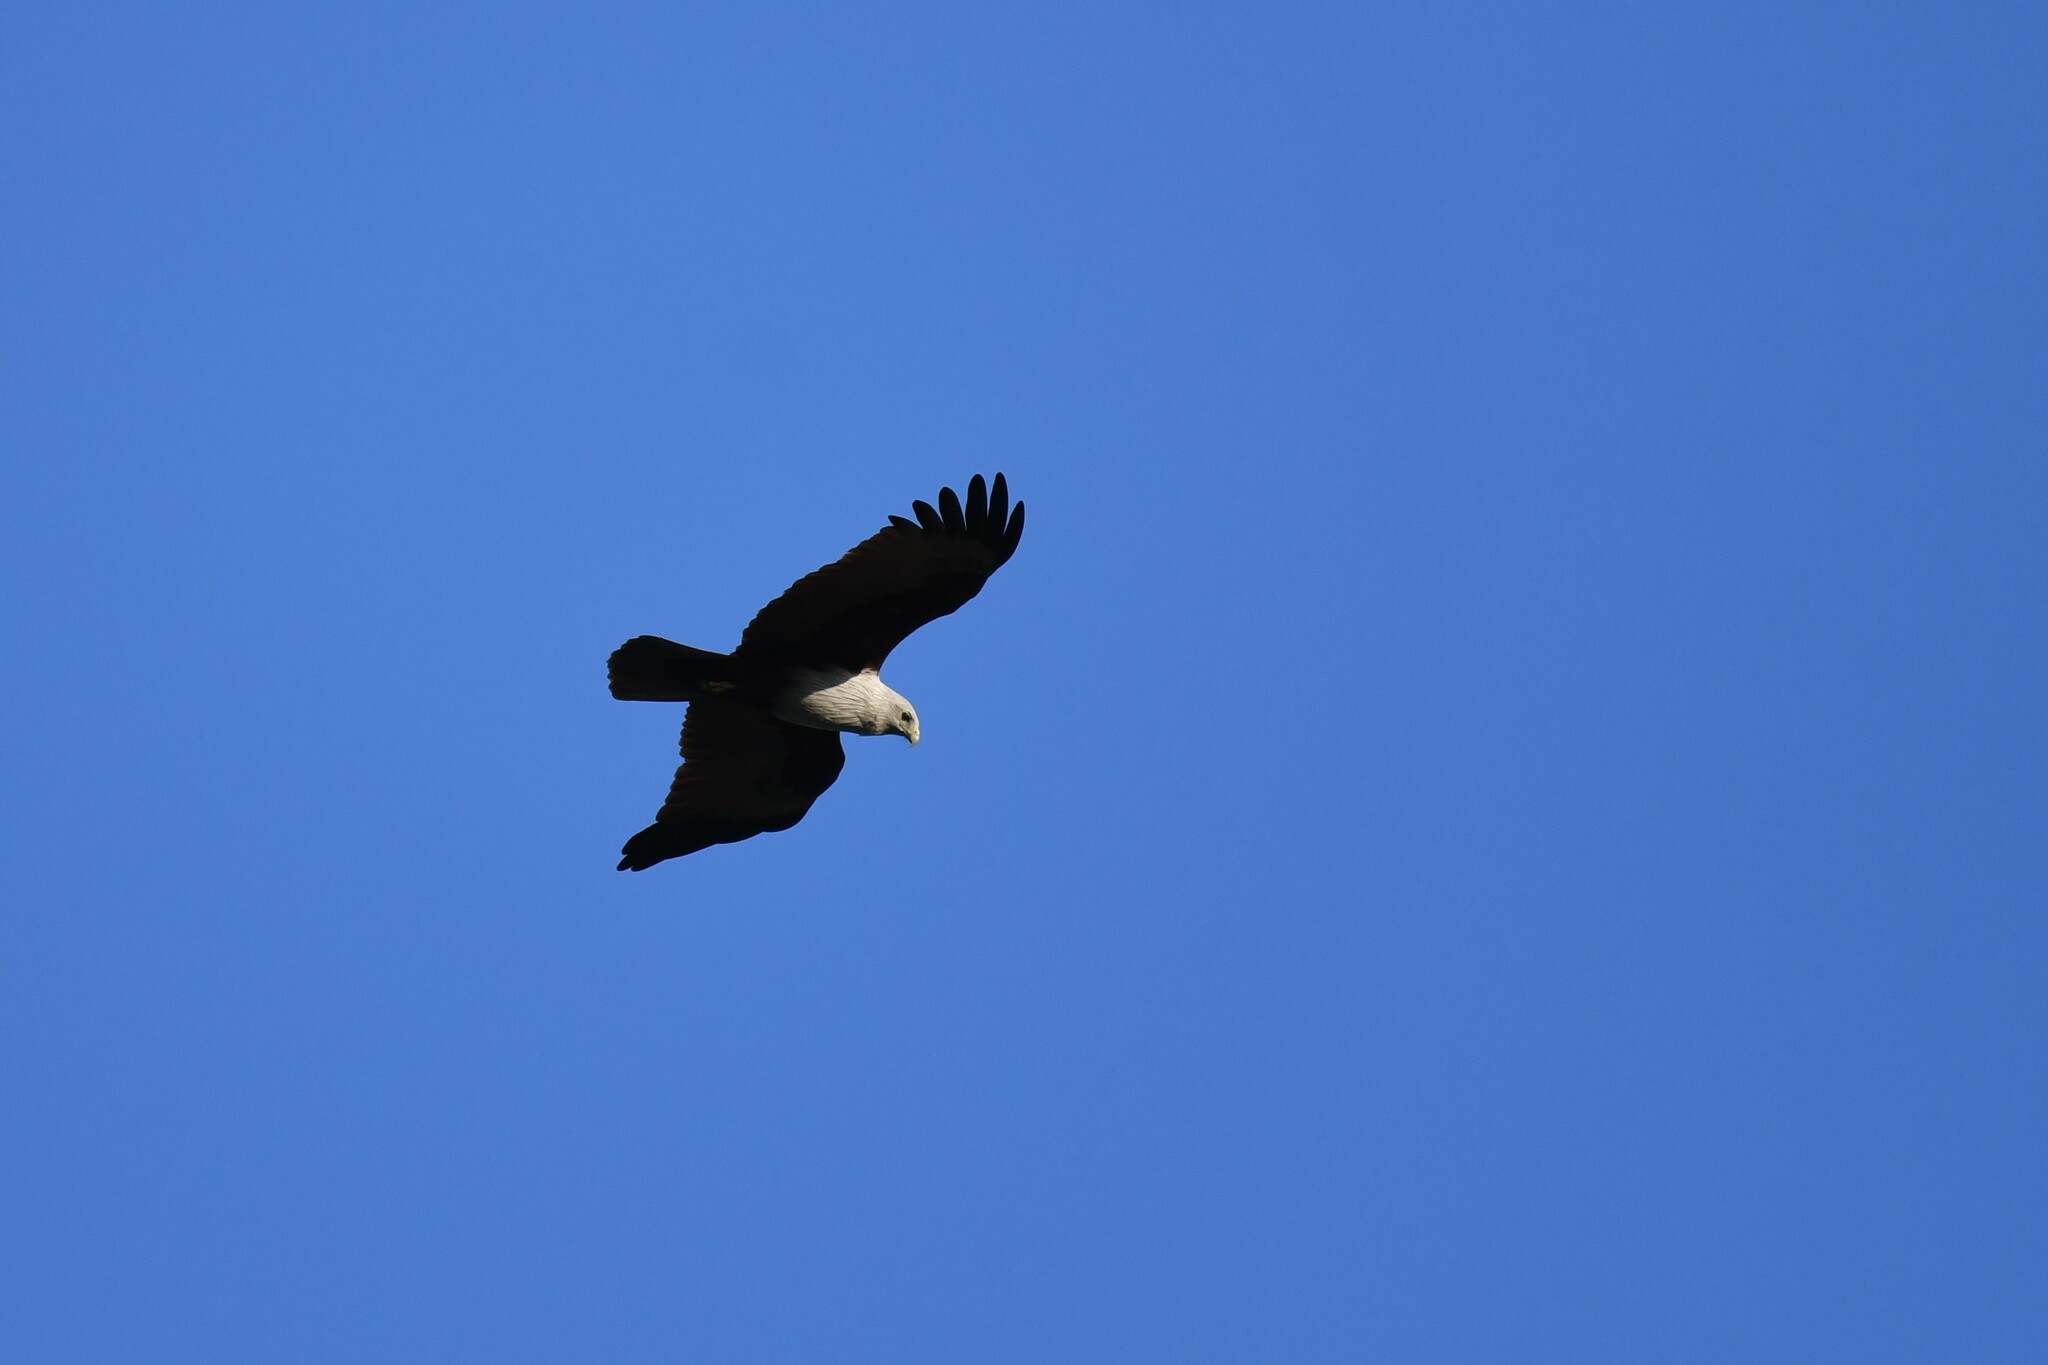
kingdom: Animalia
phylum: Chordata
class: Aves
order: Accipitriformes
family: Accipitridae
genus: Haliastur
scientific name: Haliastur indus
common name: Brahminy kite
